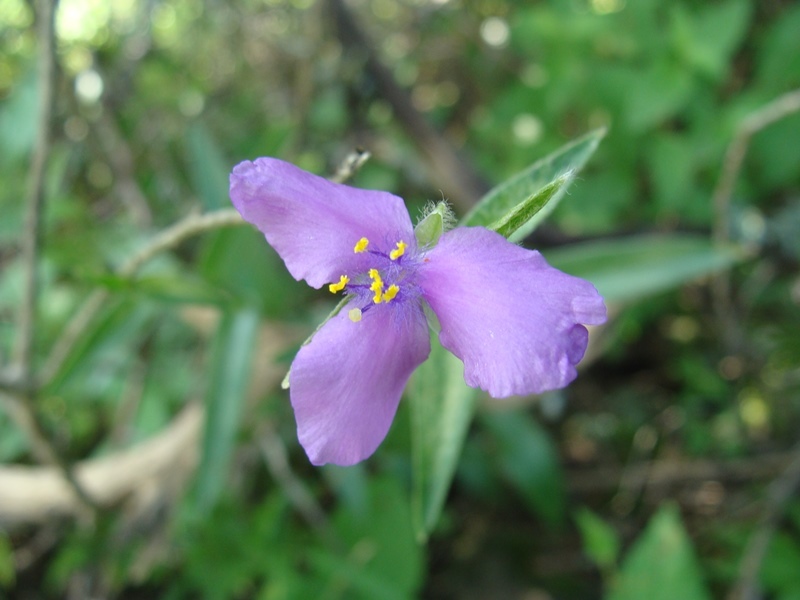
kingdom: Plantae
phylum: Tracheophyta
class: Liliopsida
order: Commelinales
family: Commelinaceae
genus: Tradescantia
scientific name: Tradescantia crassifolia
